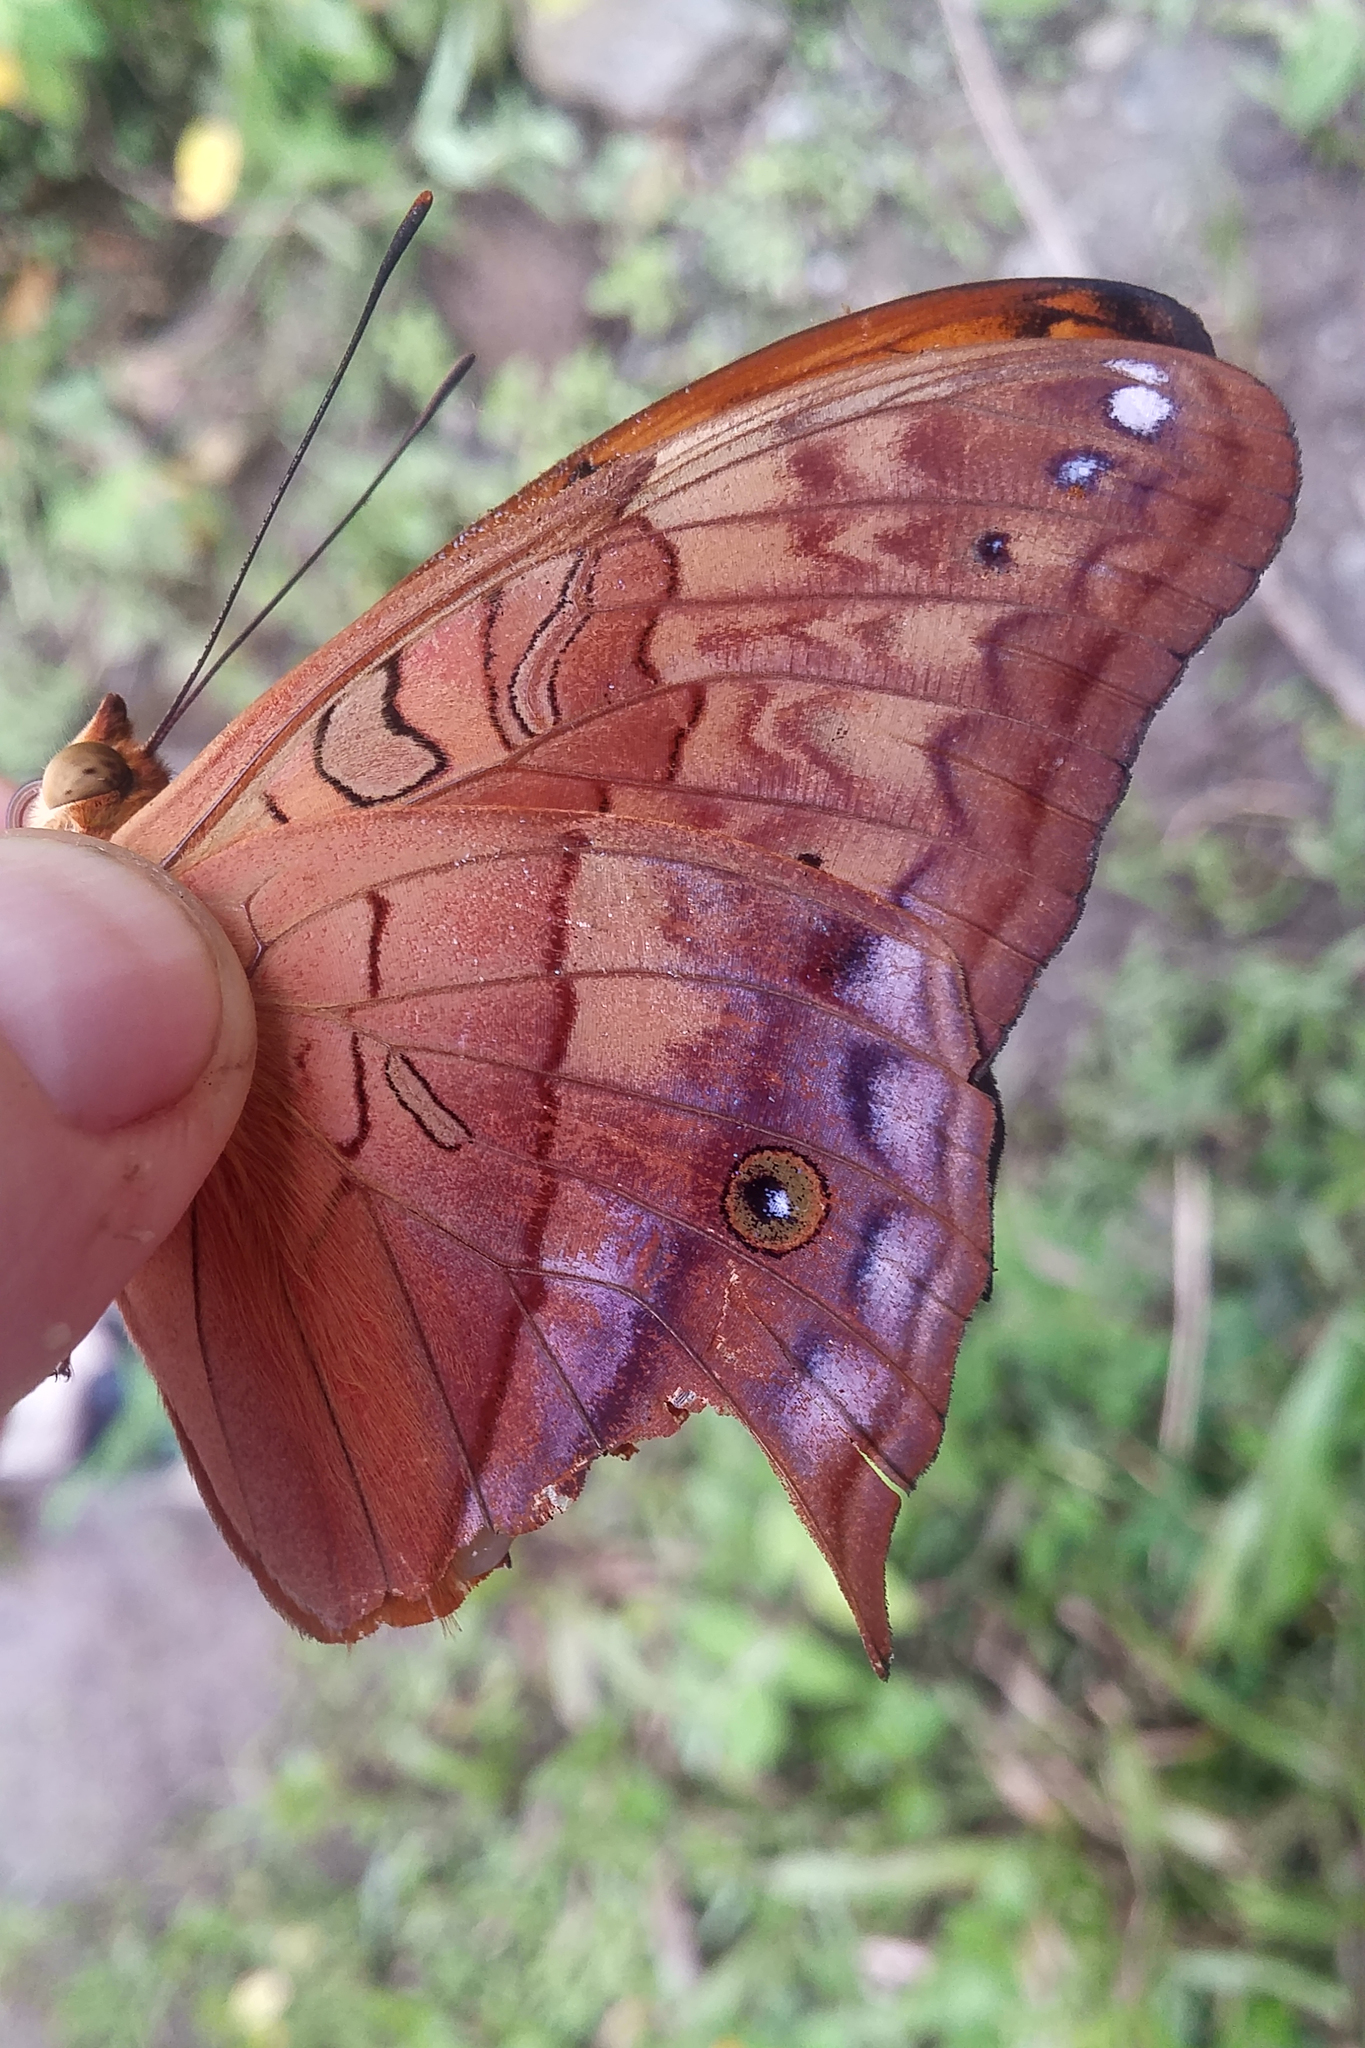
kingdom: Animalia
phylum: Arthropoda
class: Insecta
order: Lepidoptera
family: Nymphalidae
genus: Vindula
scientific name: Vindula arsinoe
